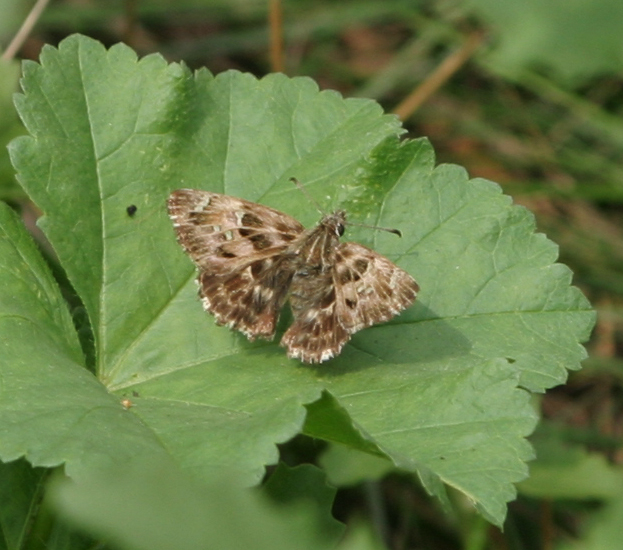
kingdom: Animalia
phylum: Arthropoda
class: Insecta
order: Lepidoptera
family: Hesperiidae
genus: Carcharodus
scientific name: Carcharodus alceae
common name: Mallow skipper
